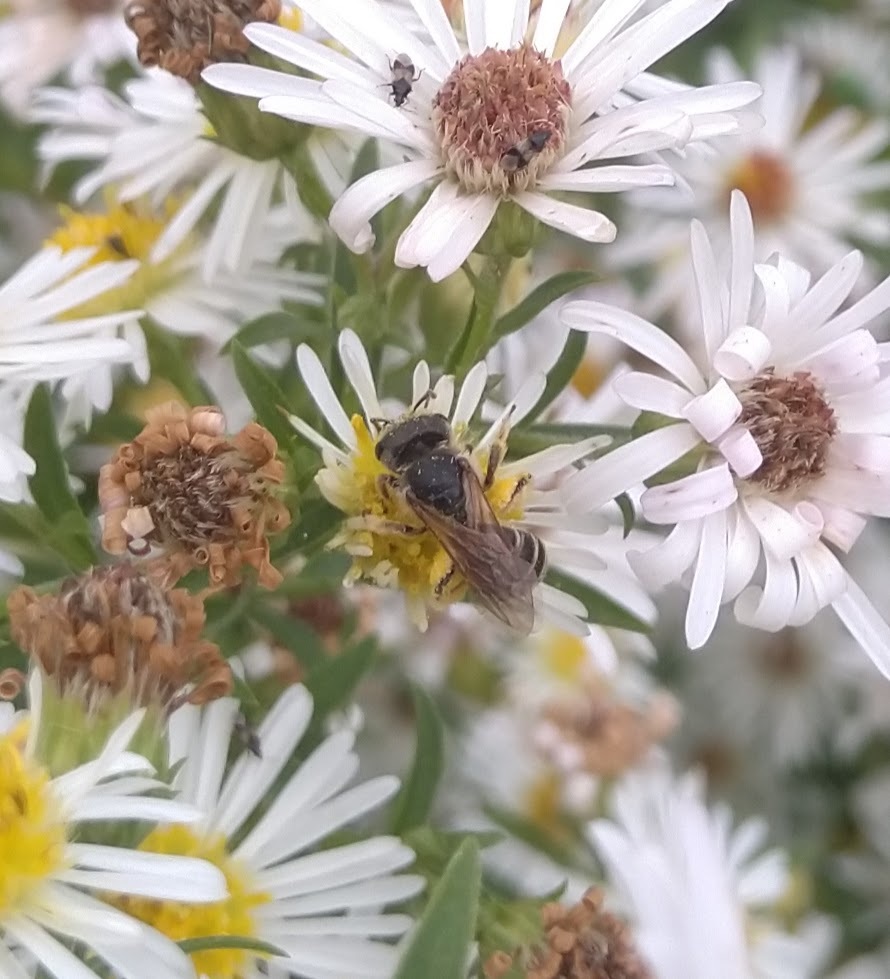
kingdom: Animalia
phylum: Arthropoda
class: Insecta
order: Hymenoptera
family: Halictidae
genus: Halictus
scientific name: Halictus ligatus
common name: Ligated furrow bee
